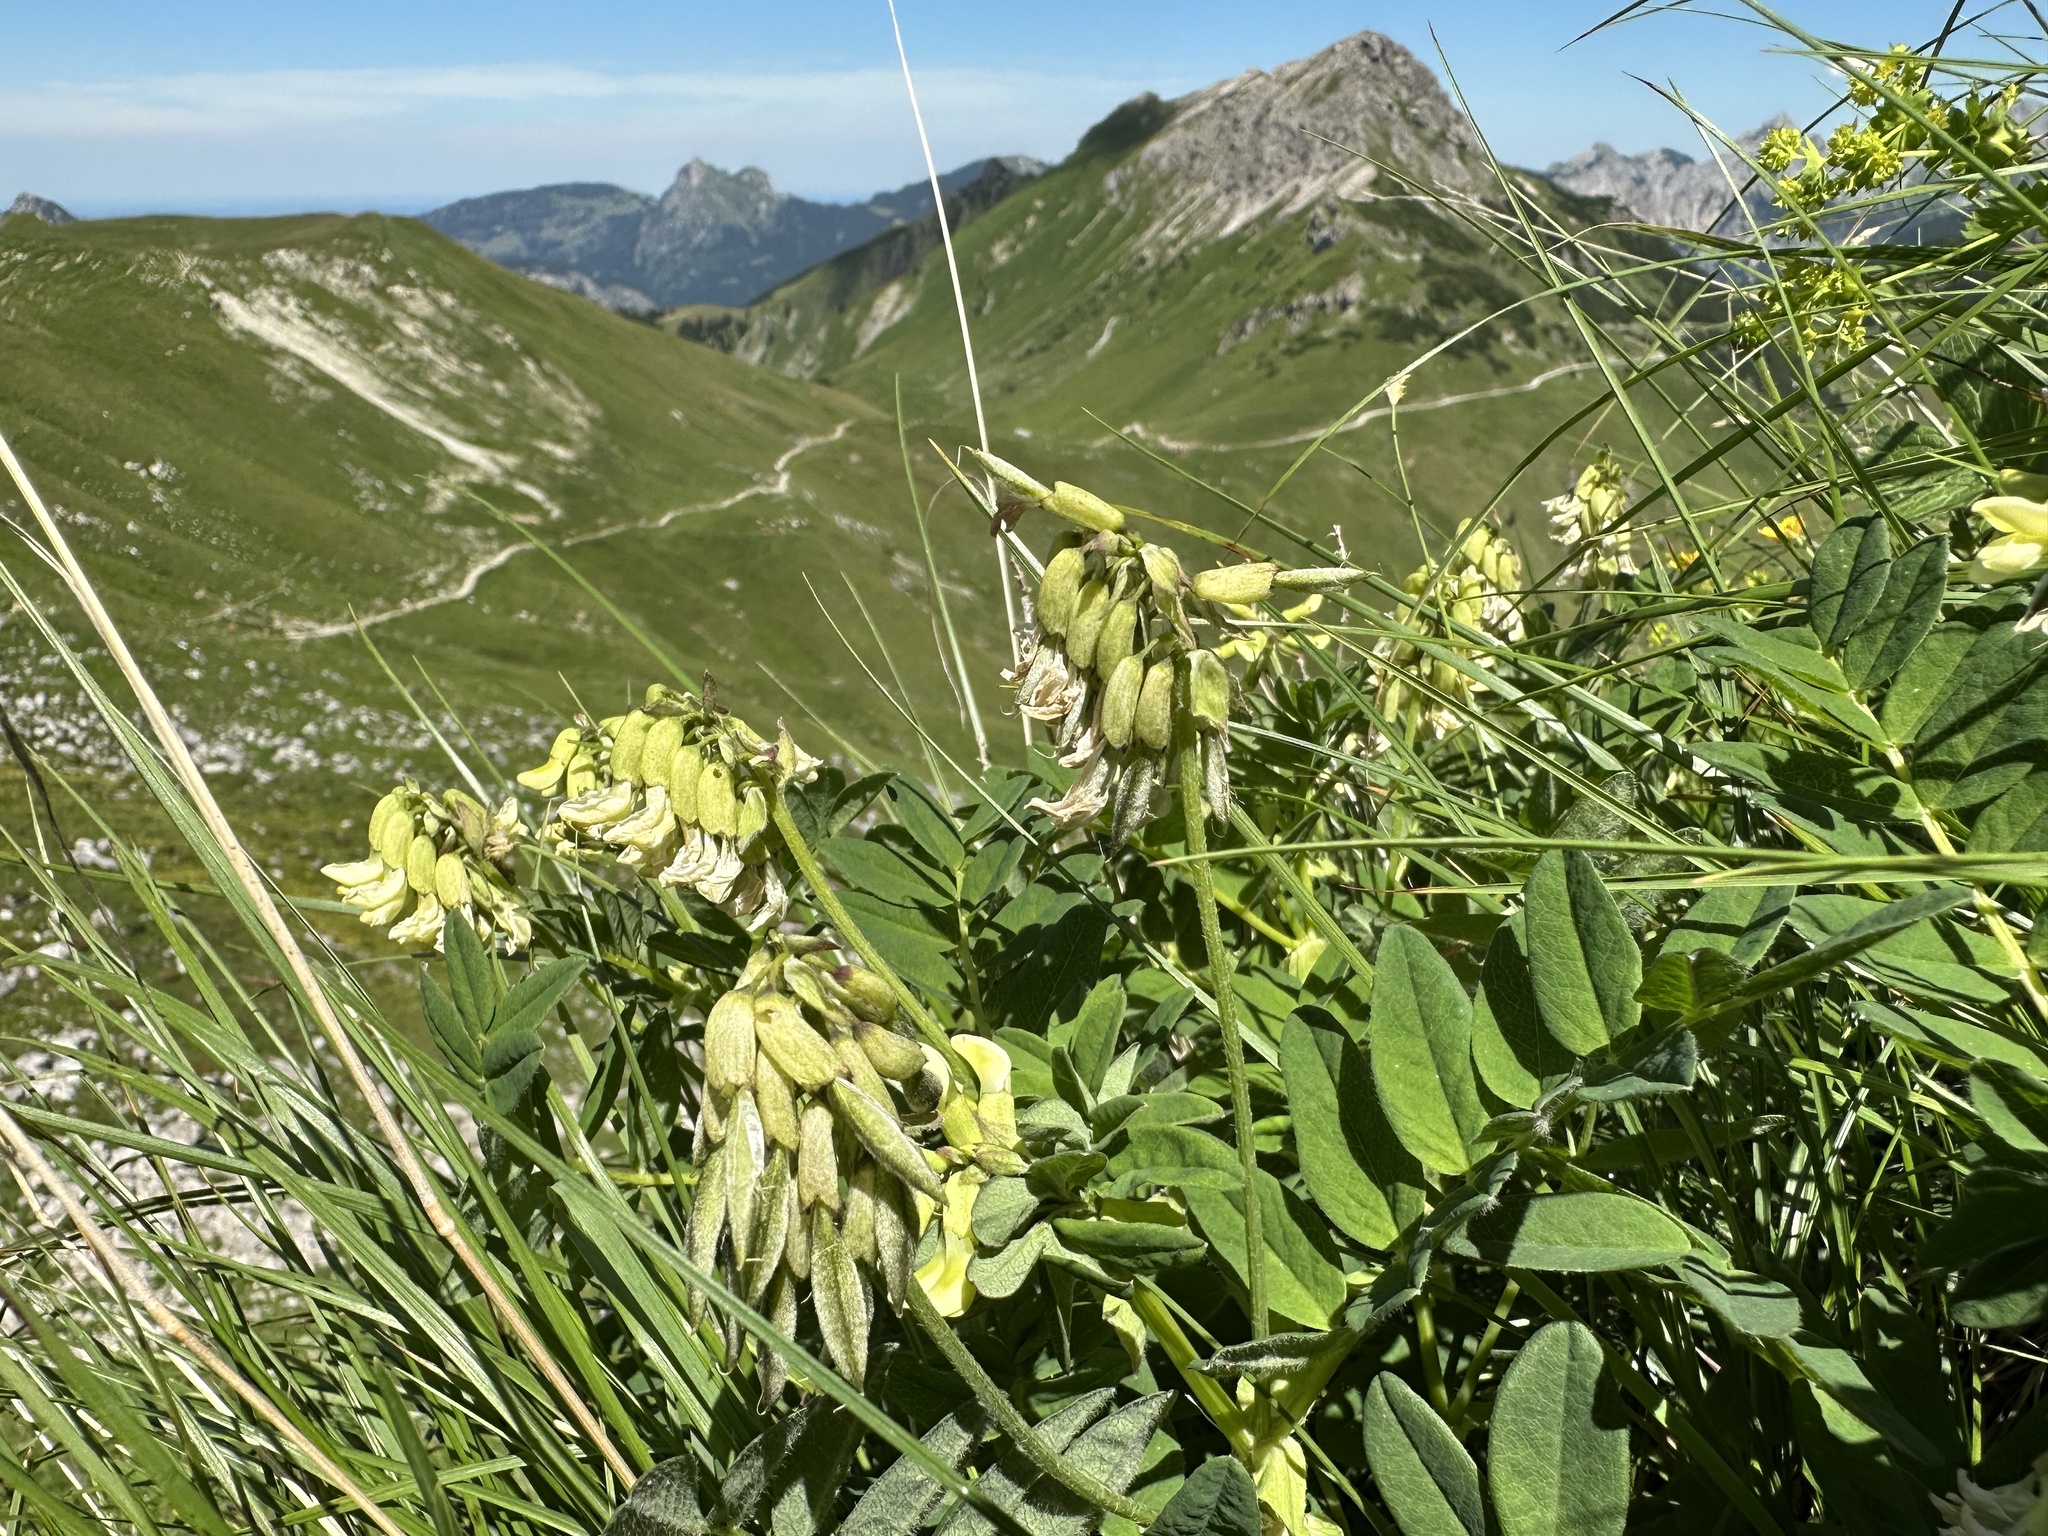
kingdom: Plantae
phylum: Tracheophyta
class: Magnoliopsida
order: Fabales
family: Fabaceae
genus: Astragalus
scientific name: Astragalus frigidus
